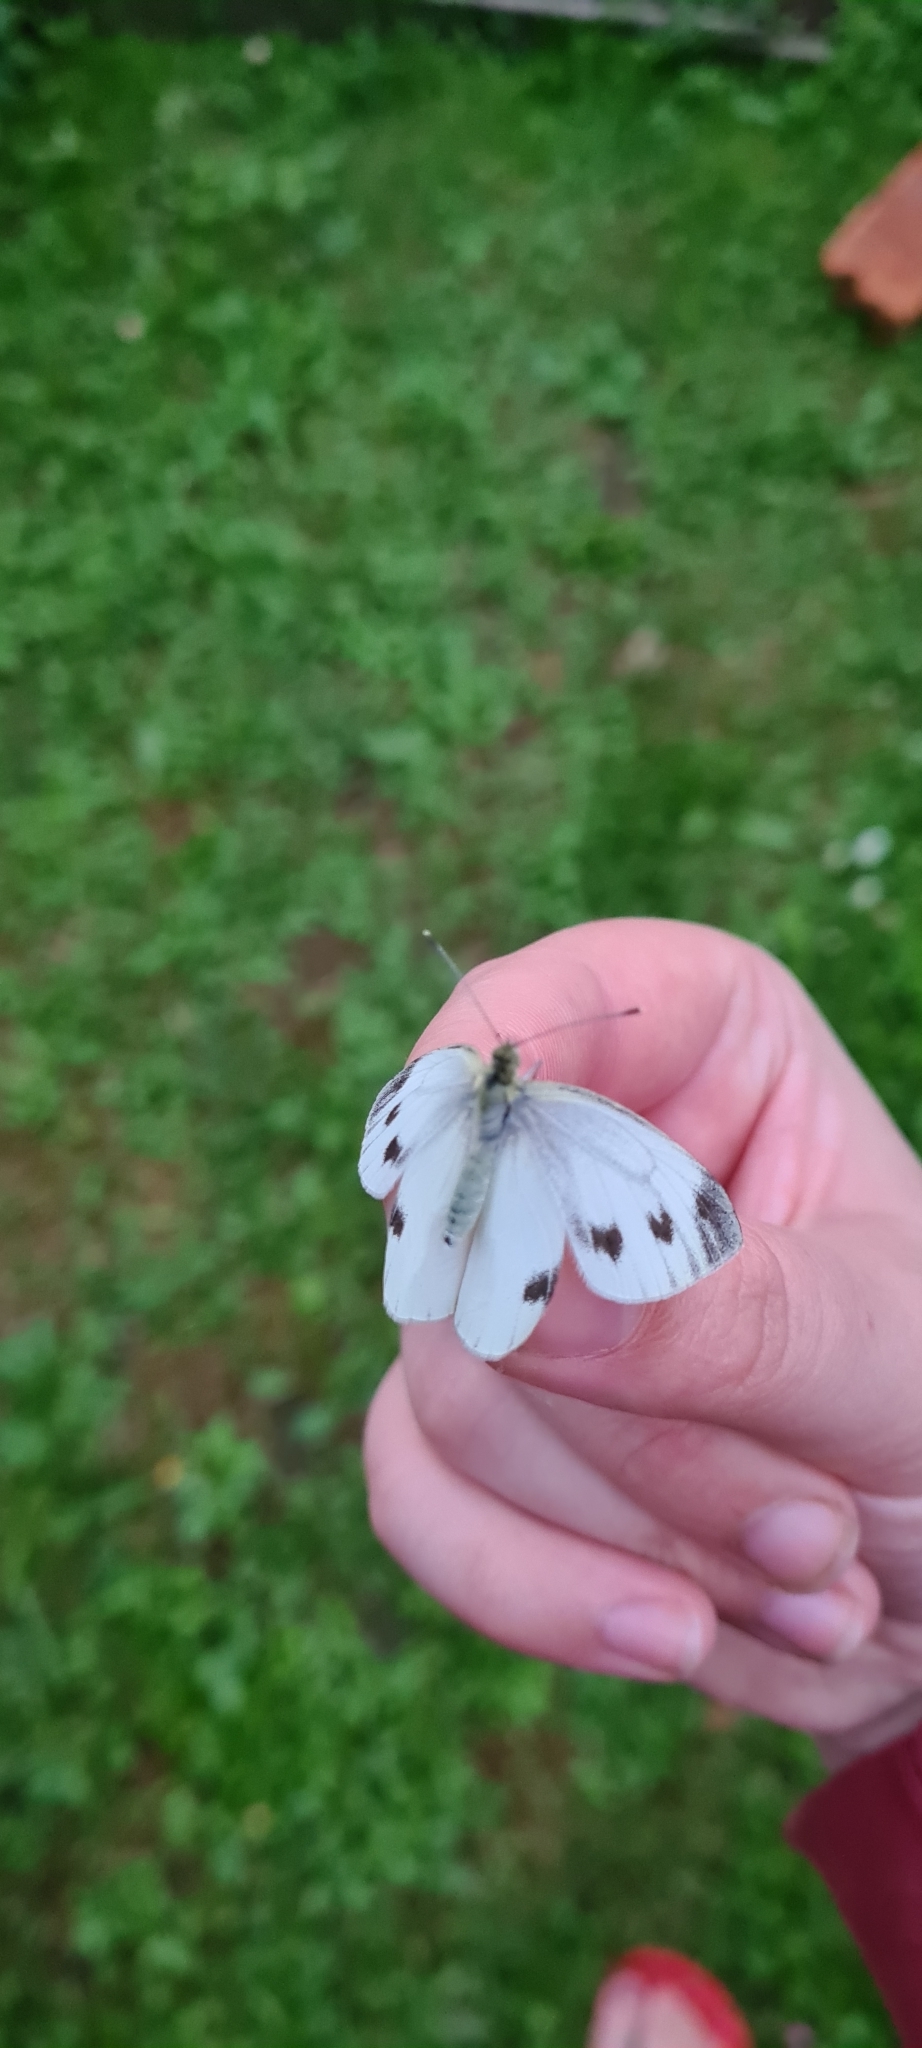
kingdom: Animalia
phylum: Arthropoda
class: Insecta
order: Lepidoptera
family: Pieridae
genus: Pieris
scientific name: Pieris napi
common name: Green-veined white
